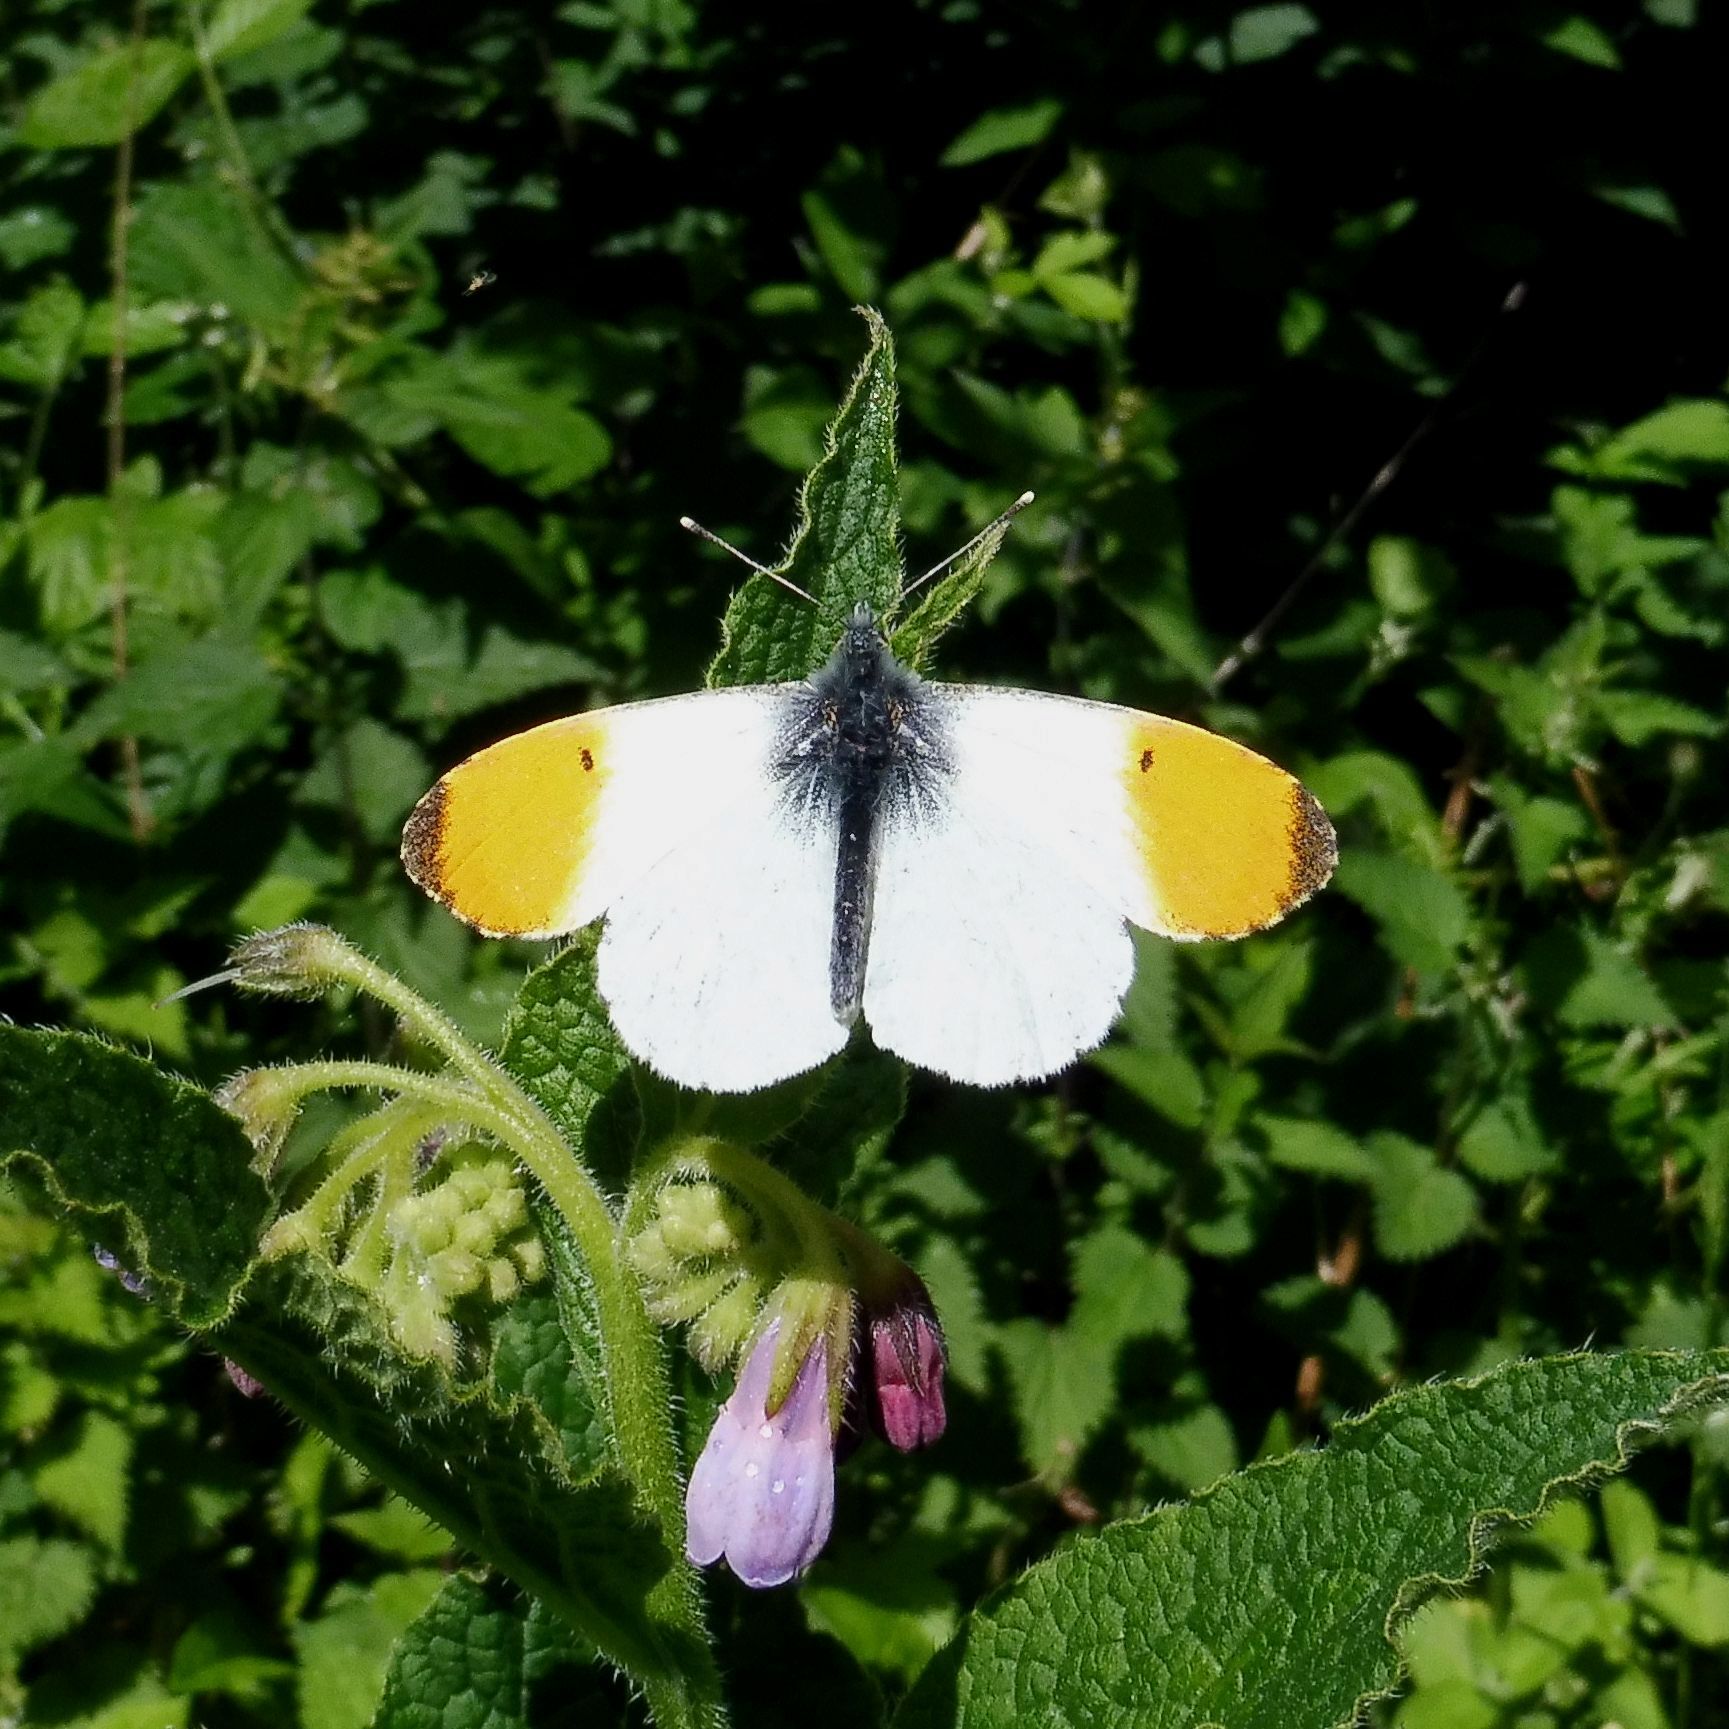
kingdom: Animalia
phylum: Arthropoda
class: Insecta
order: Lepidoptera
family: Pieridae
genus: Anthocharis
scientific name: Anthocharis cardamines
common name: Orange-tip
